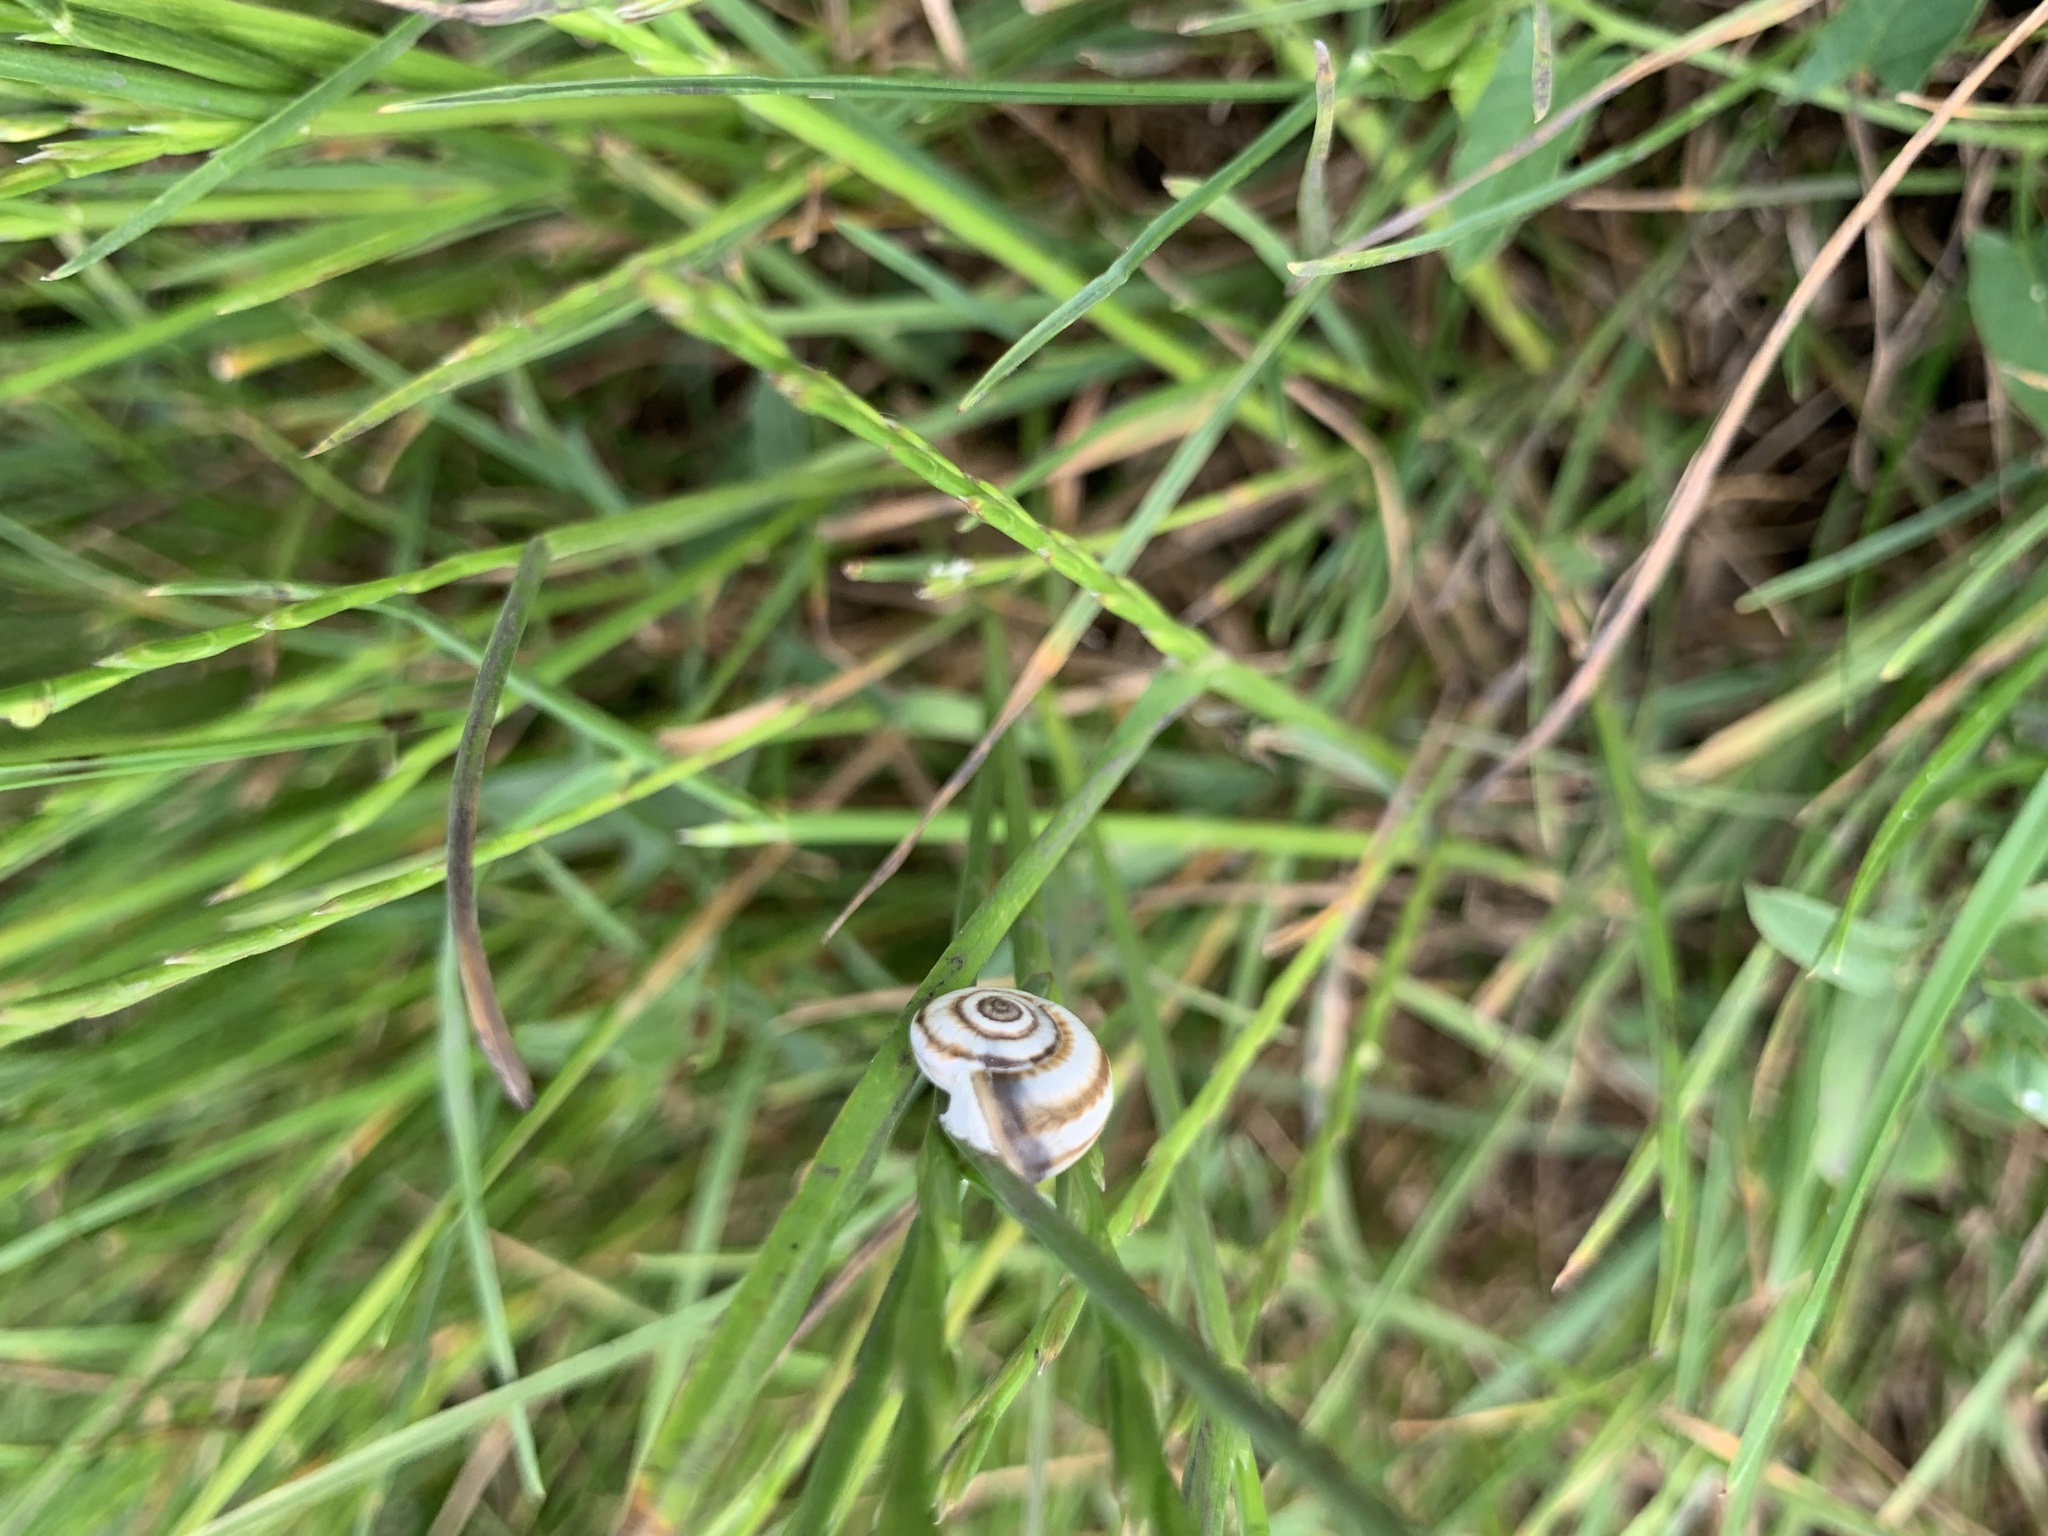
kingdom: Animalia
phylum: Mollusca
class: Gastropoda
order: Stylommatophora
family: Geomitridae
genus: Xeropicta
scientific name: Xeropicta derbentina
